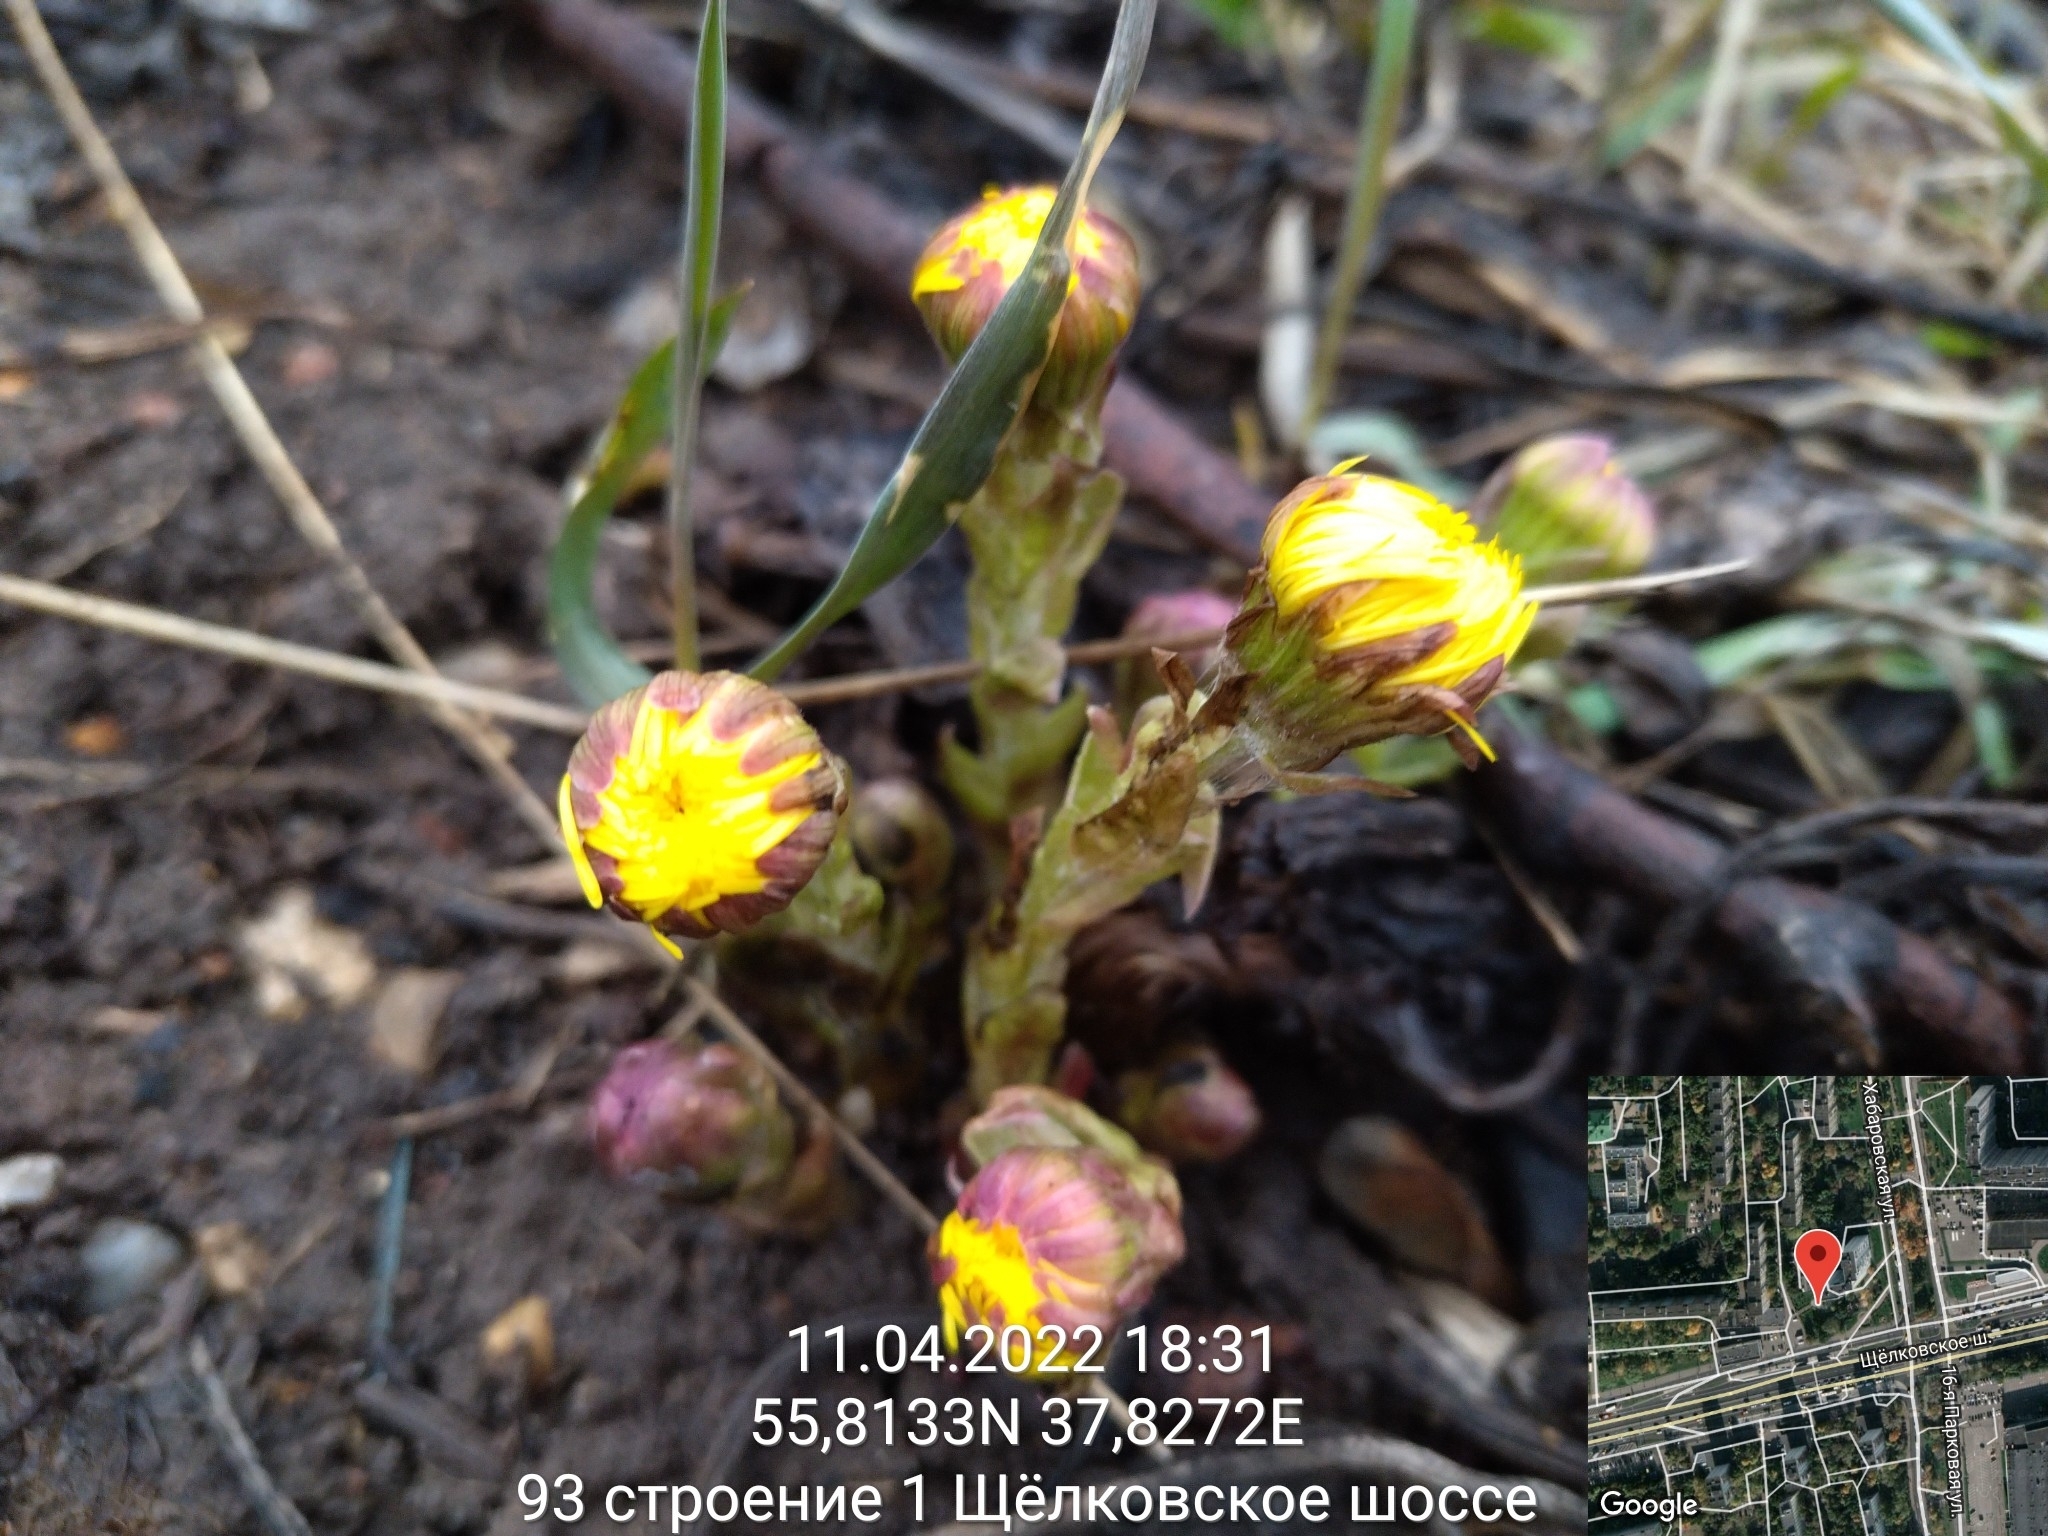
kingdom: Plantae
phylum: Tracheophyta
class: Magnoliopsida
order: Asterales
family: Asteraceae
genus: Tussilago
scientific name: Tussilago farfara
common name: Coltsfoot
